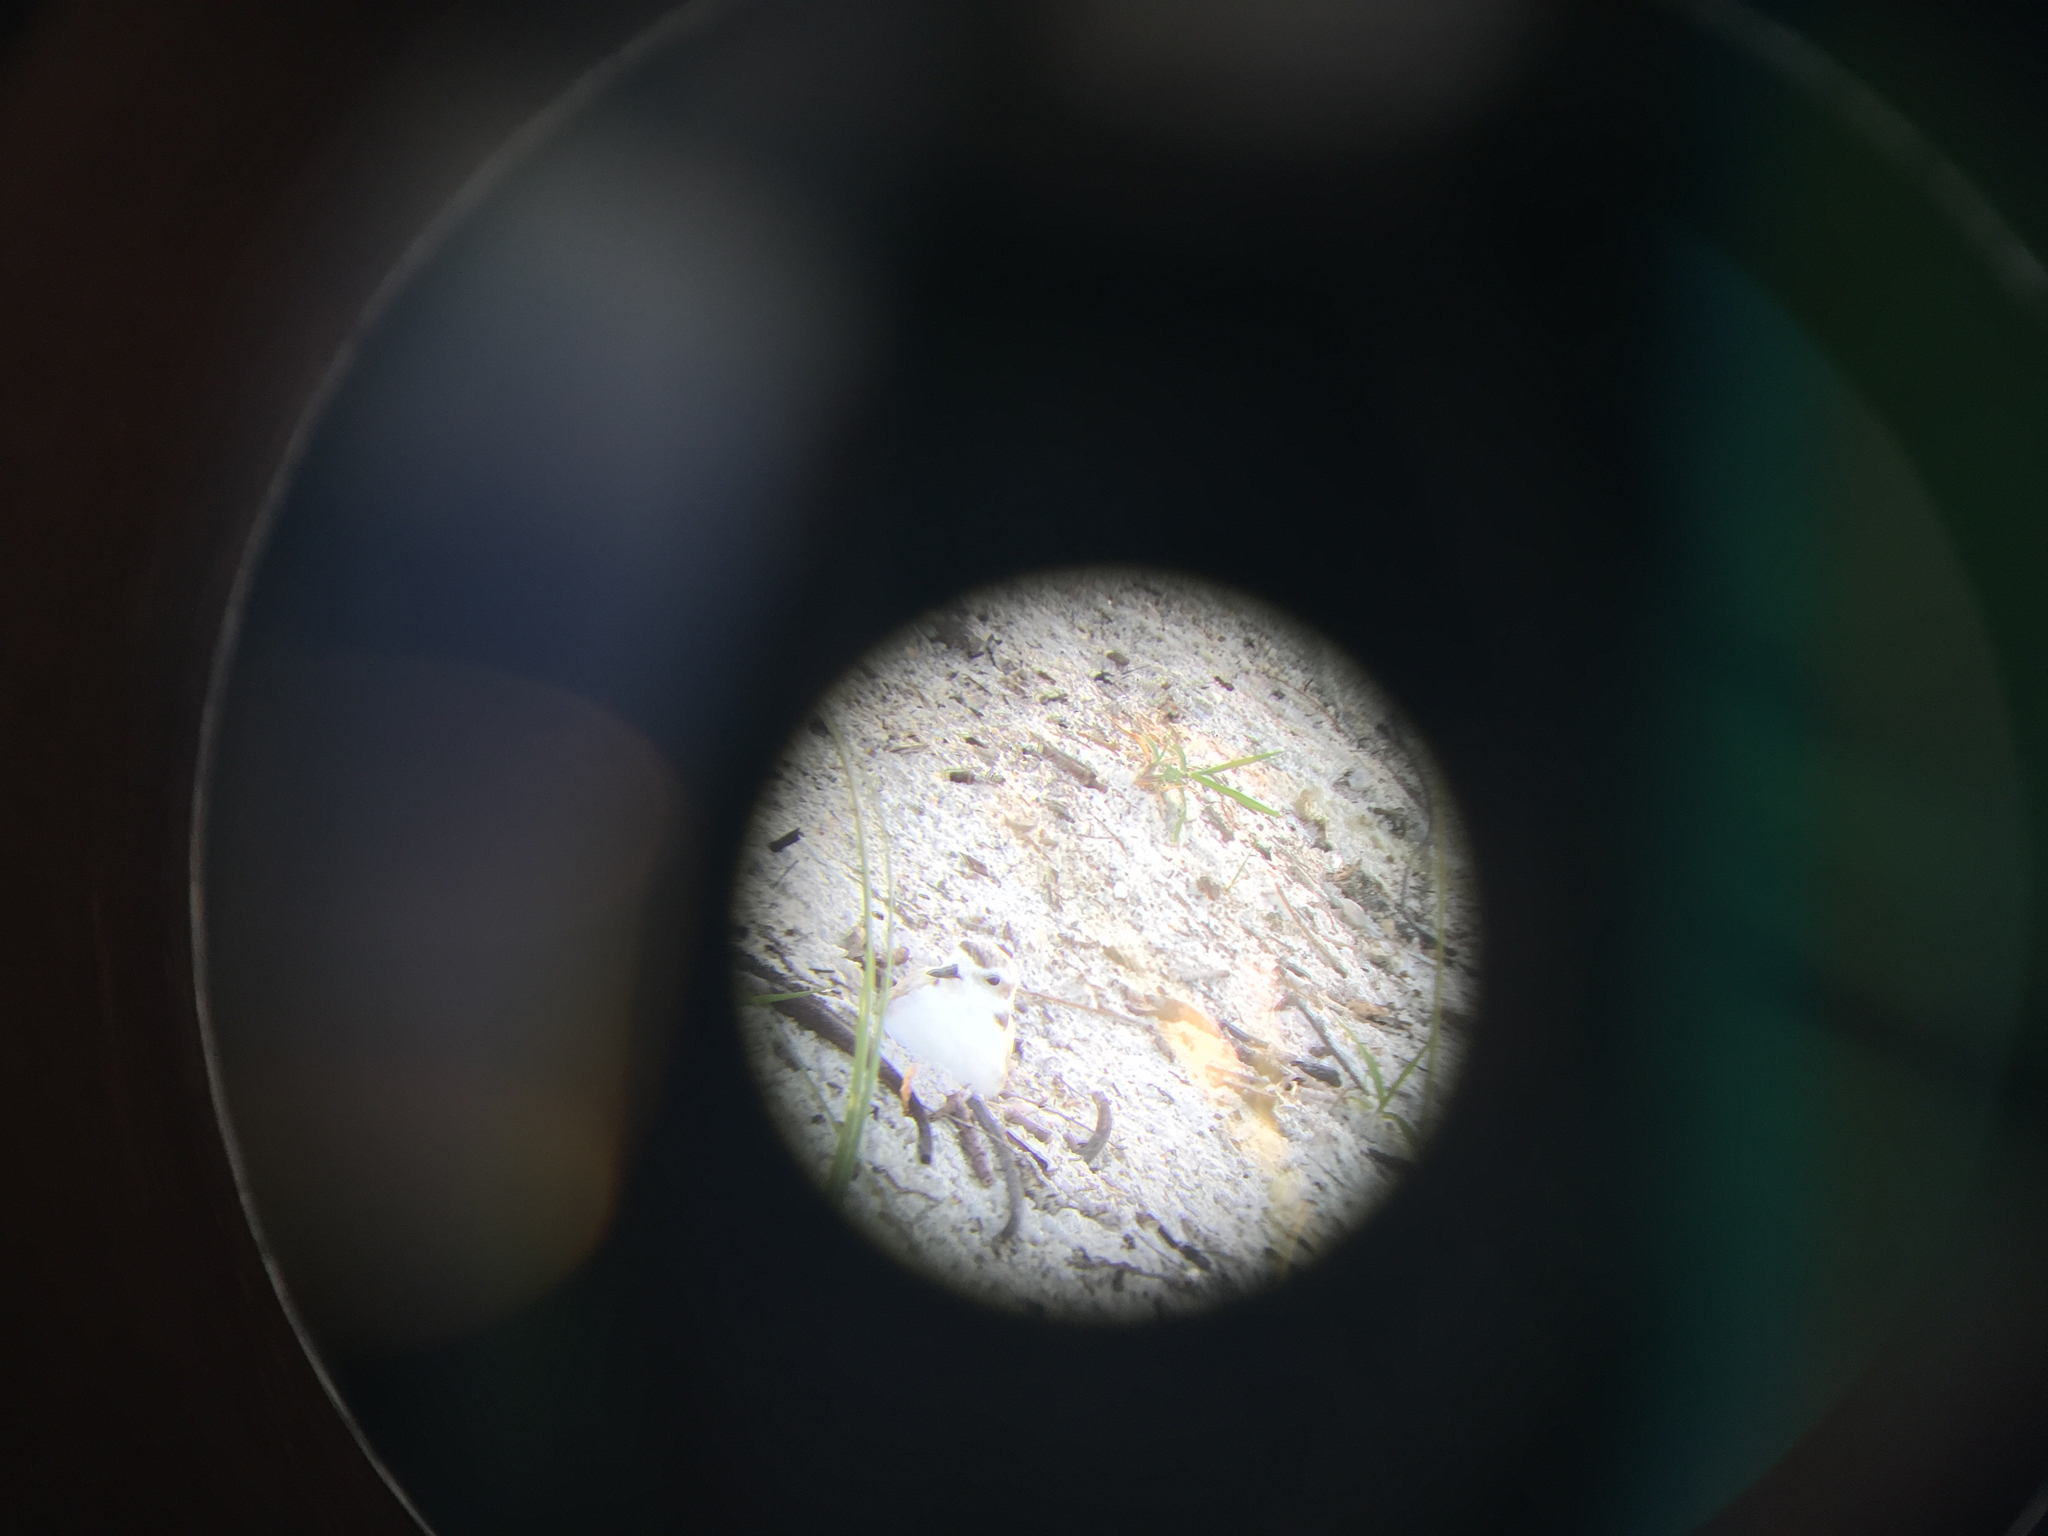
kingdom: Animalia
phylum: Chordata
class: Aves
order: Charadriiformes
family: Charadriidae
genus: Anarhynchus
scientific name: Anarhynchus
